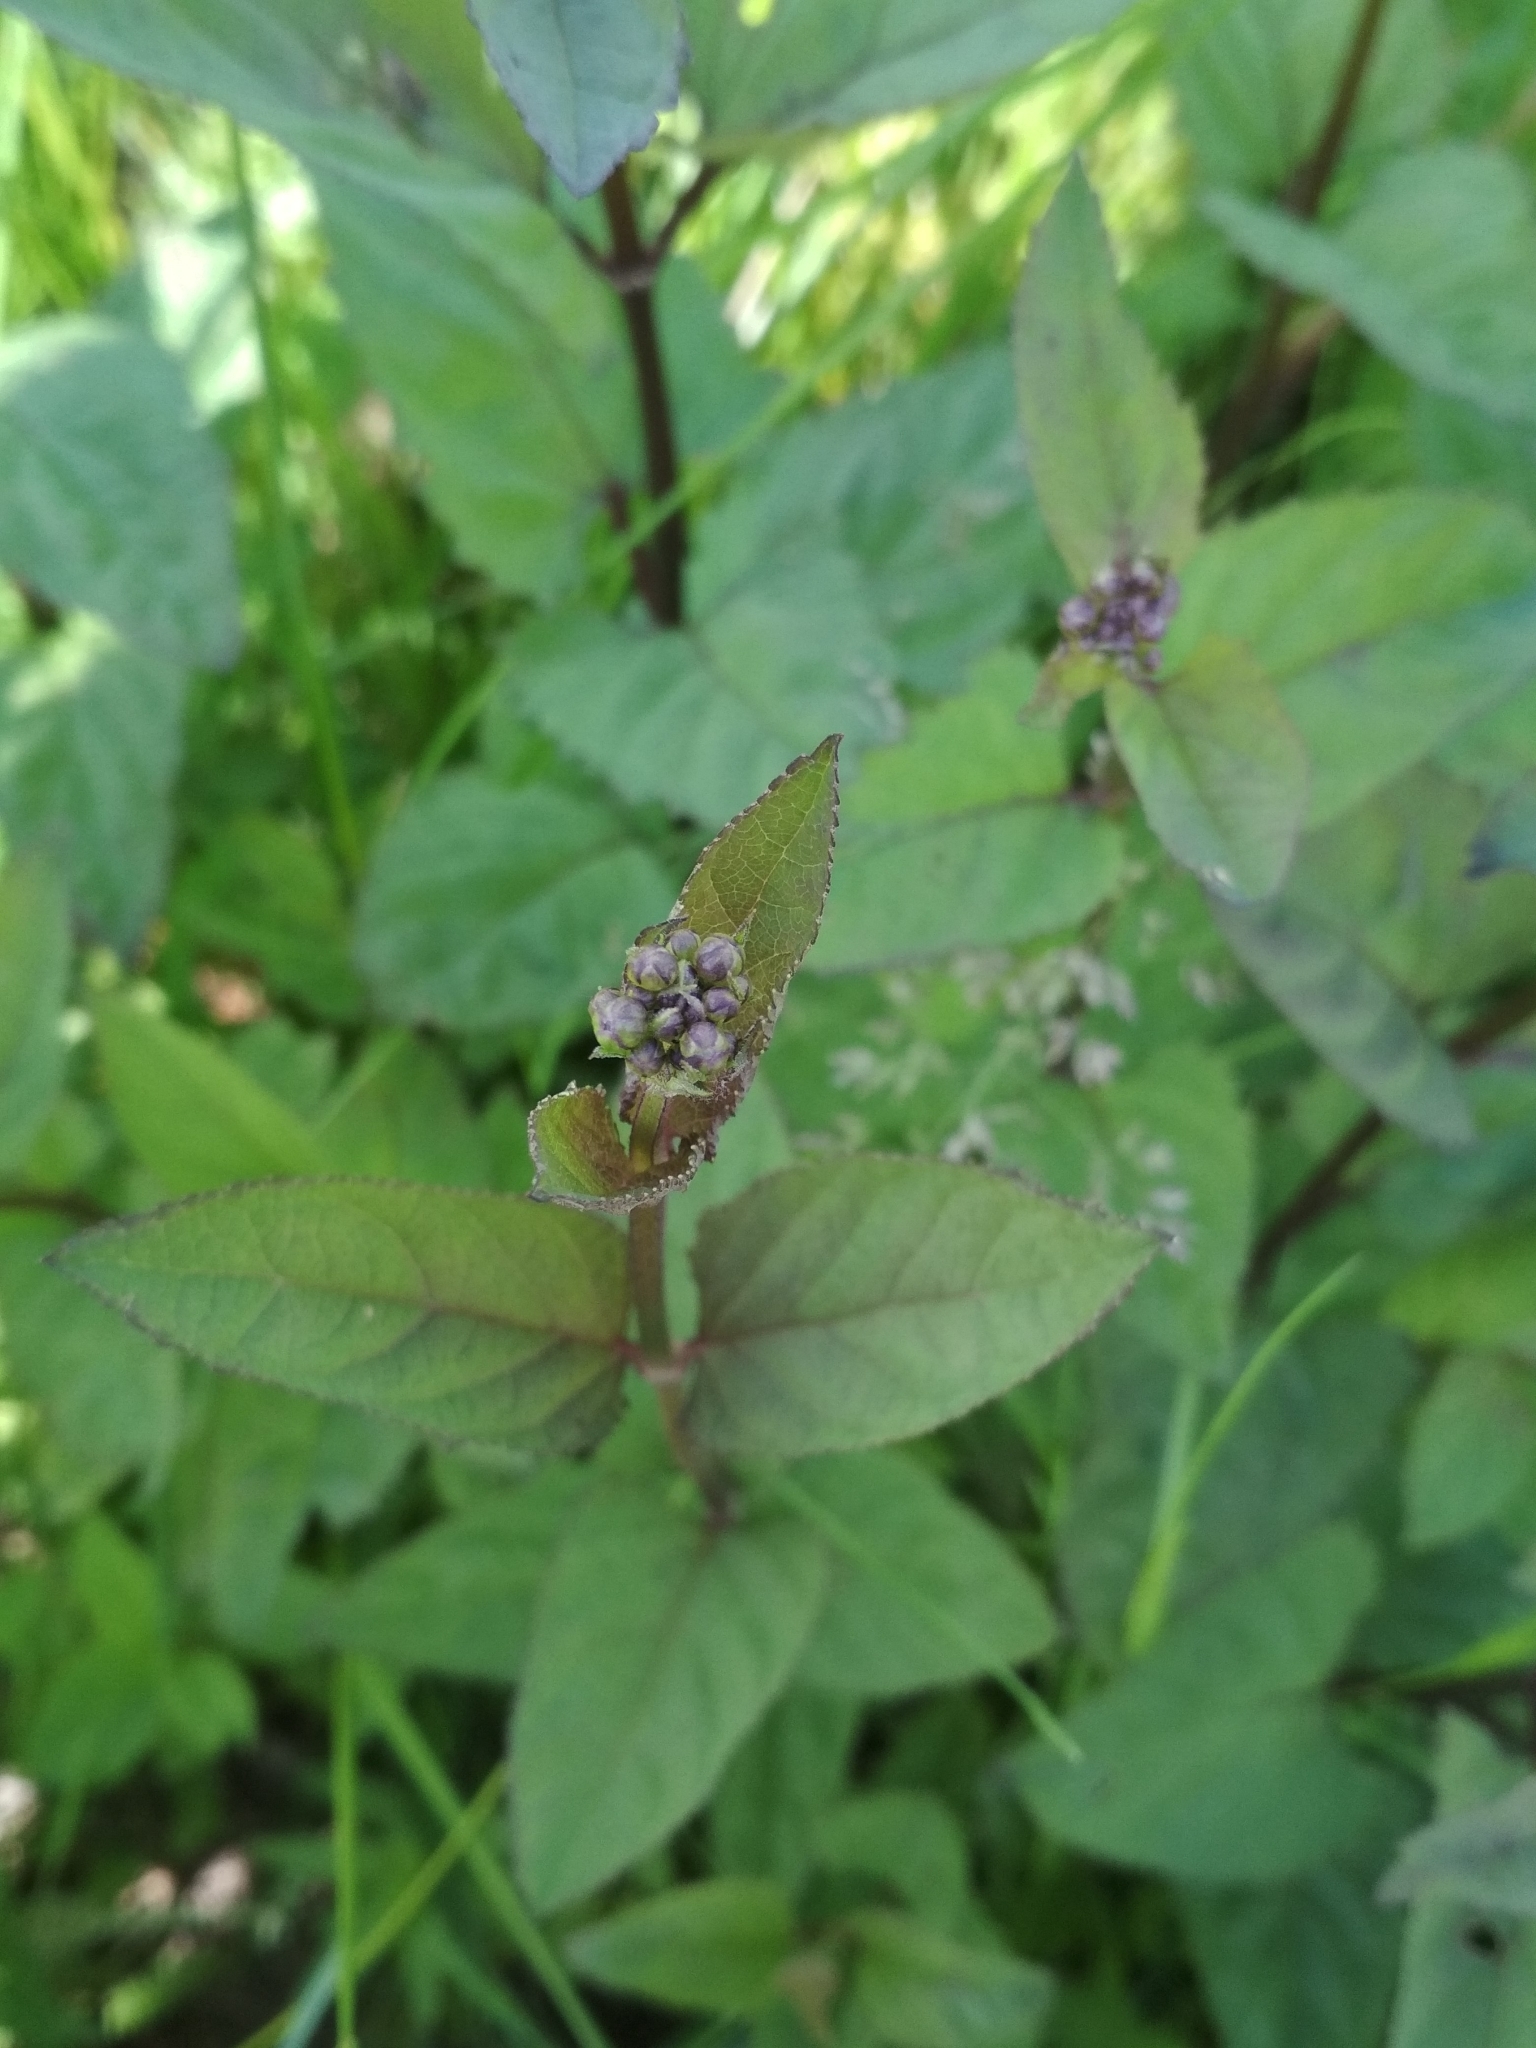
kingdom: Plantae
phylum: Tracheophyta
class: Magnoliopsida
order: Lamiales
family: Scrophulariaceae
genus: Scrophularia
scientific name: Scrophularia nodosa
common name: Common figwort
